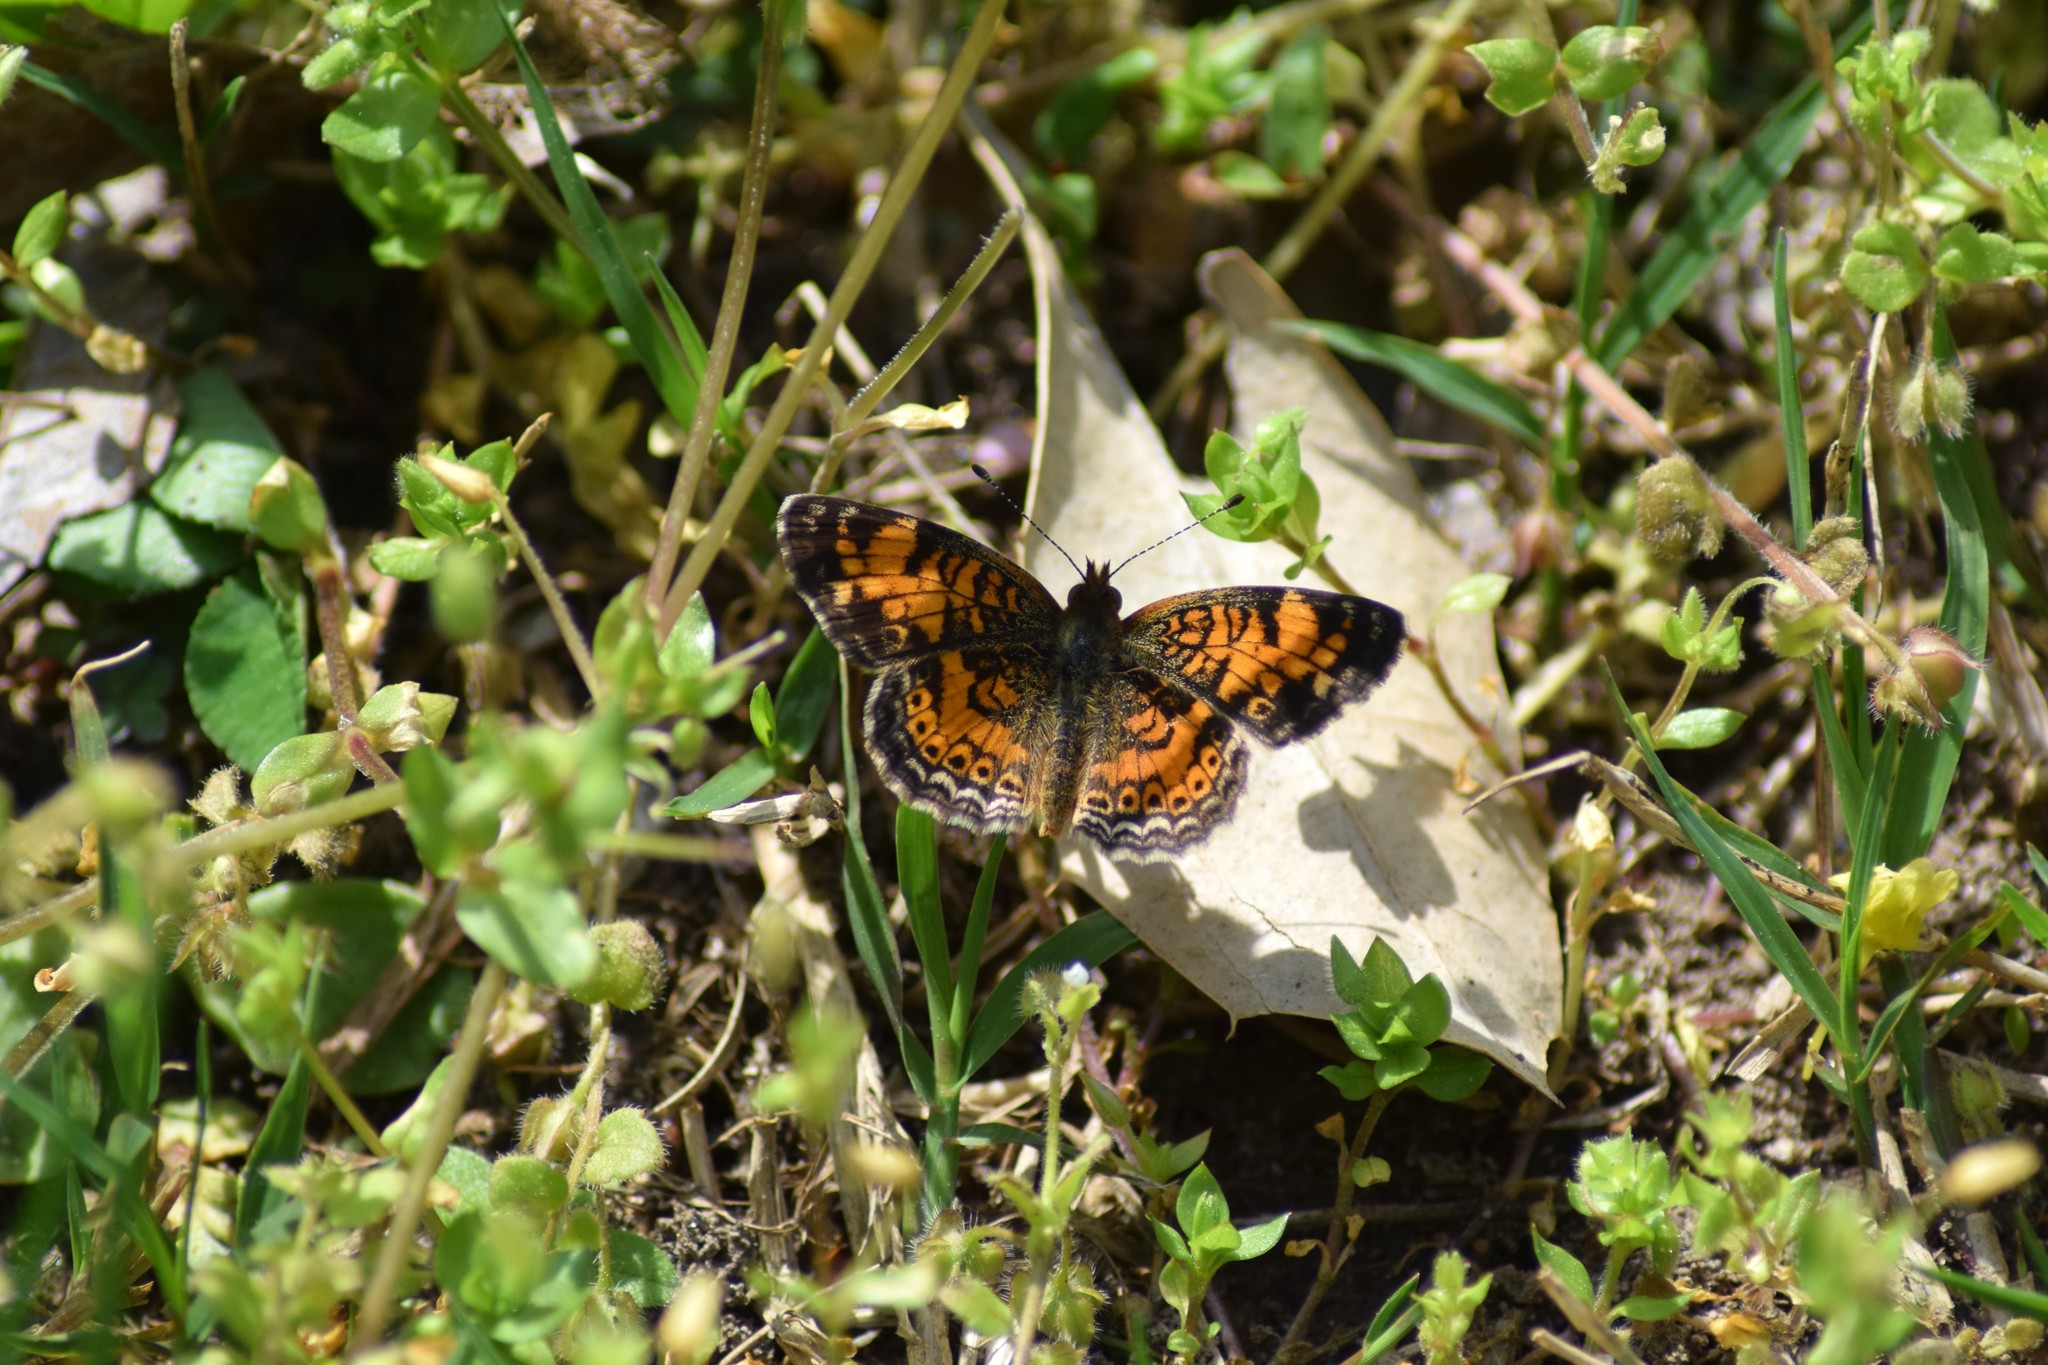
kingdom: Animalia
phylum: Arthropoda
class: Insecta
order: Lepidoptera
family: Nymphalidae
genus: Phyciodes
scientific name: Phyciodes tharos
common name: Pearl crescent
